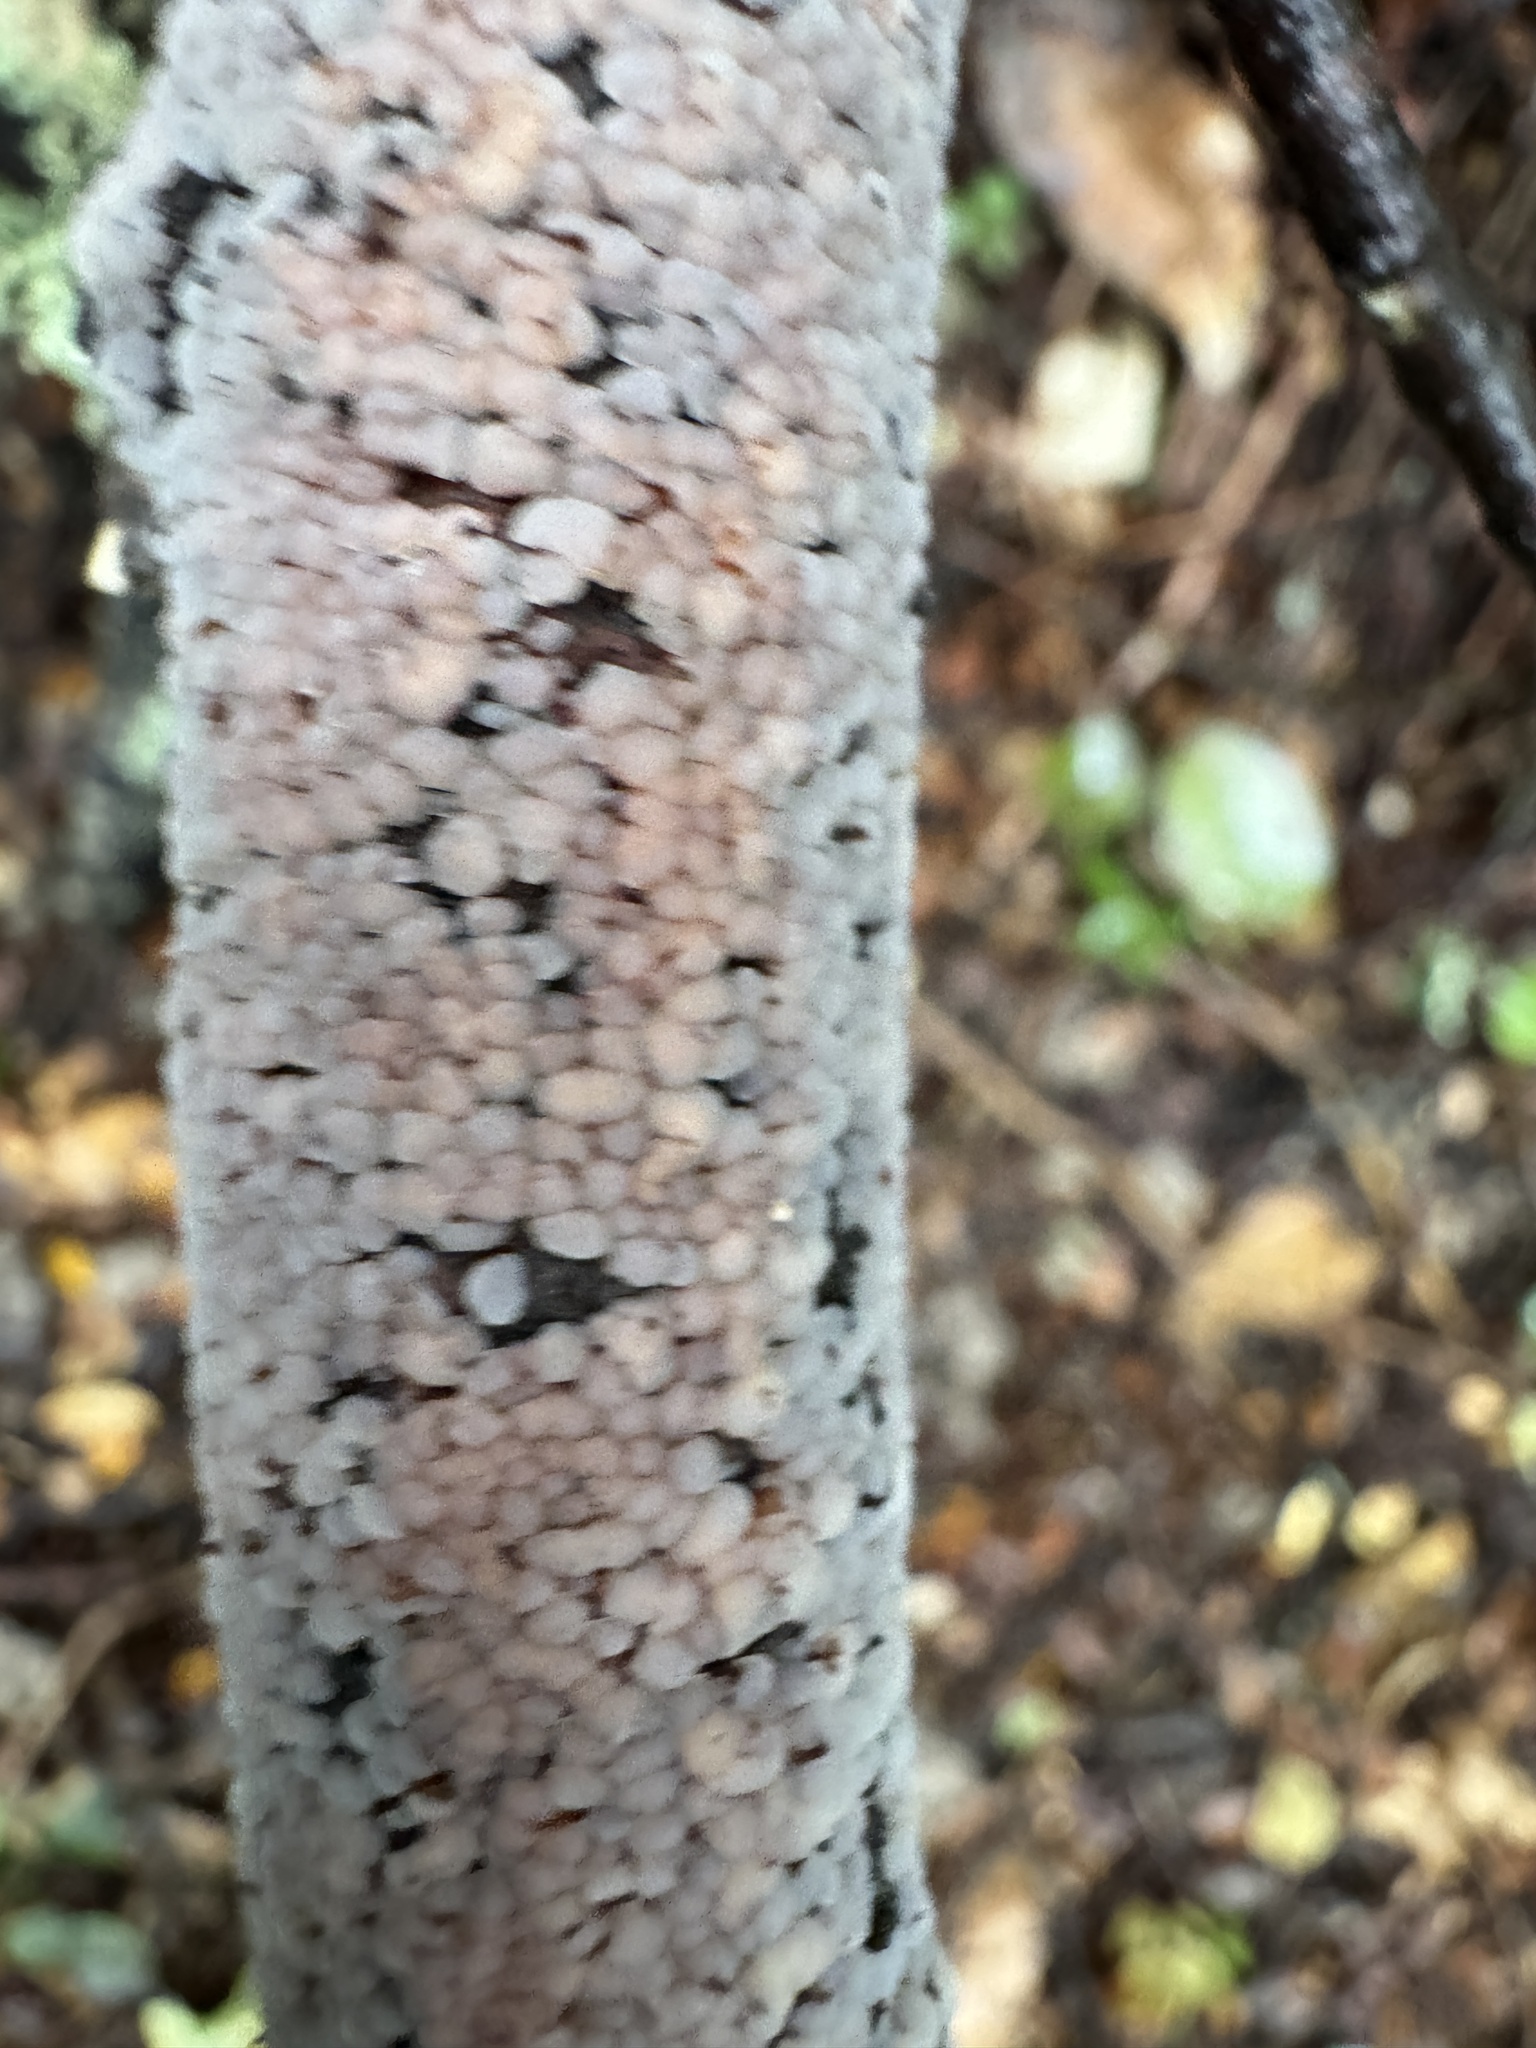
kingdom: Fungi
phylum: Basidiomycota
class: Agaricomycetes
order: Russulales
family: Stereaceae
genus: Aleurodiscus
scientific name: Aleurodiscus berggrenii
